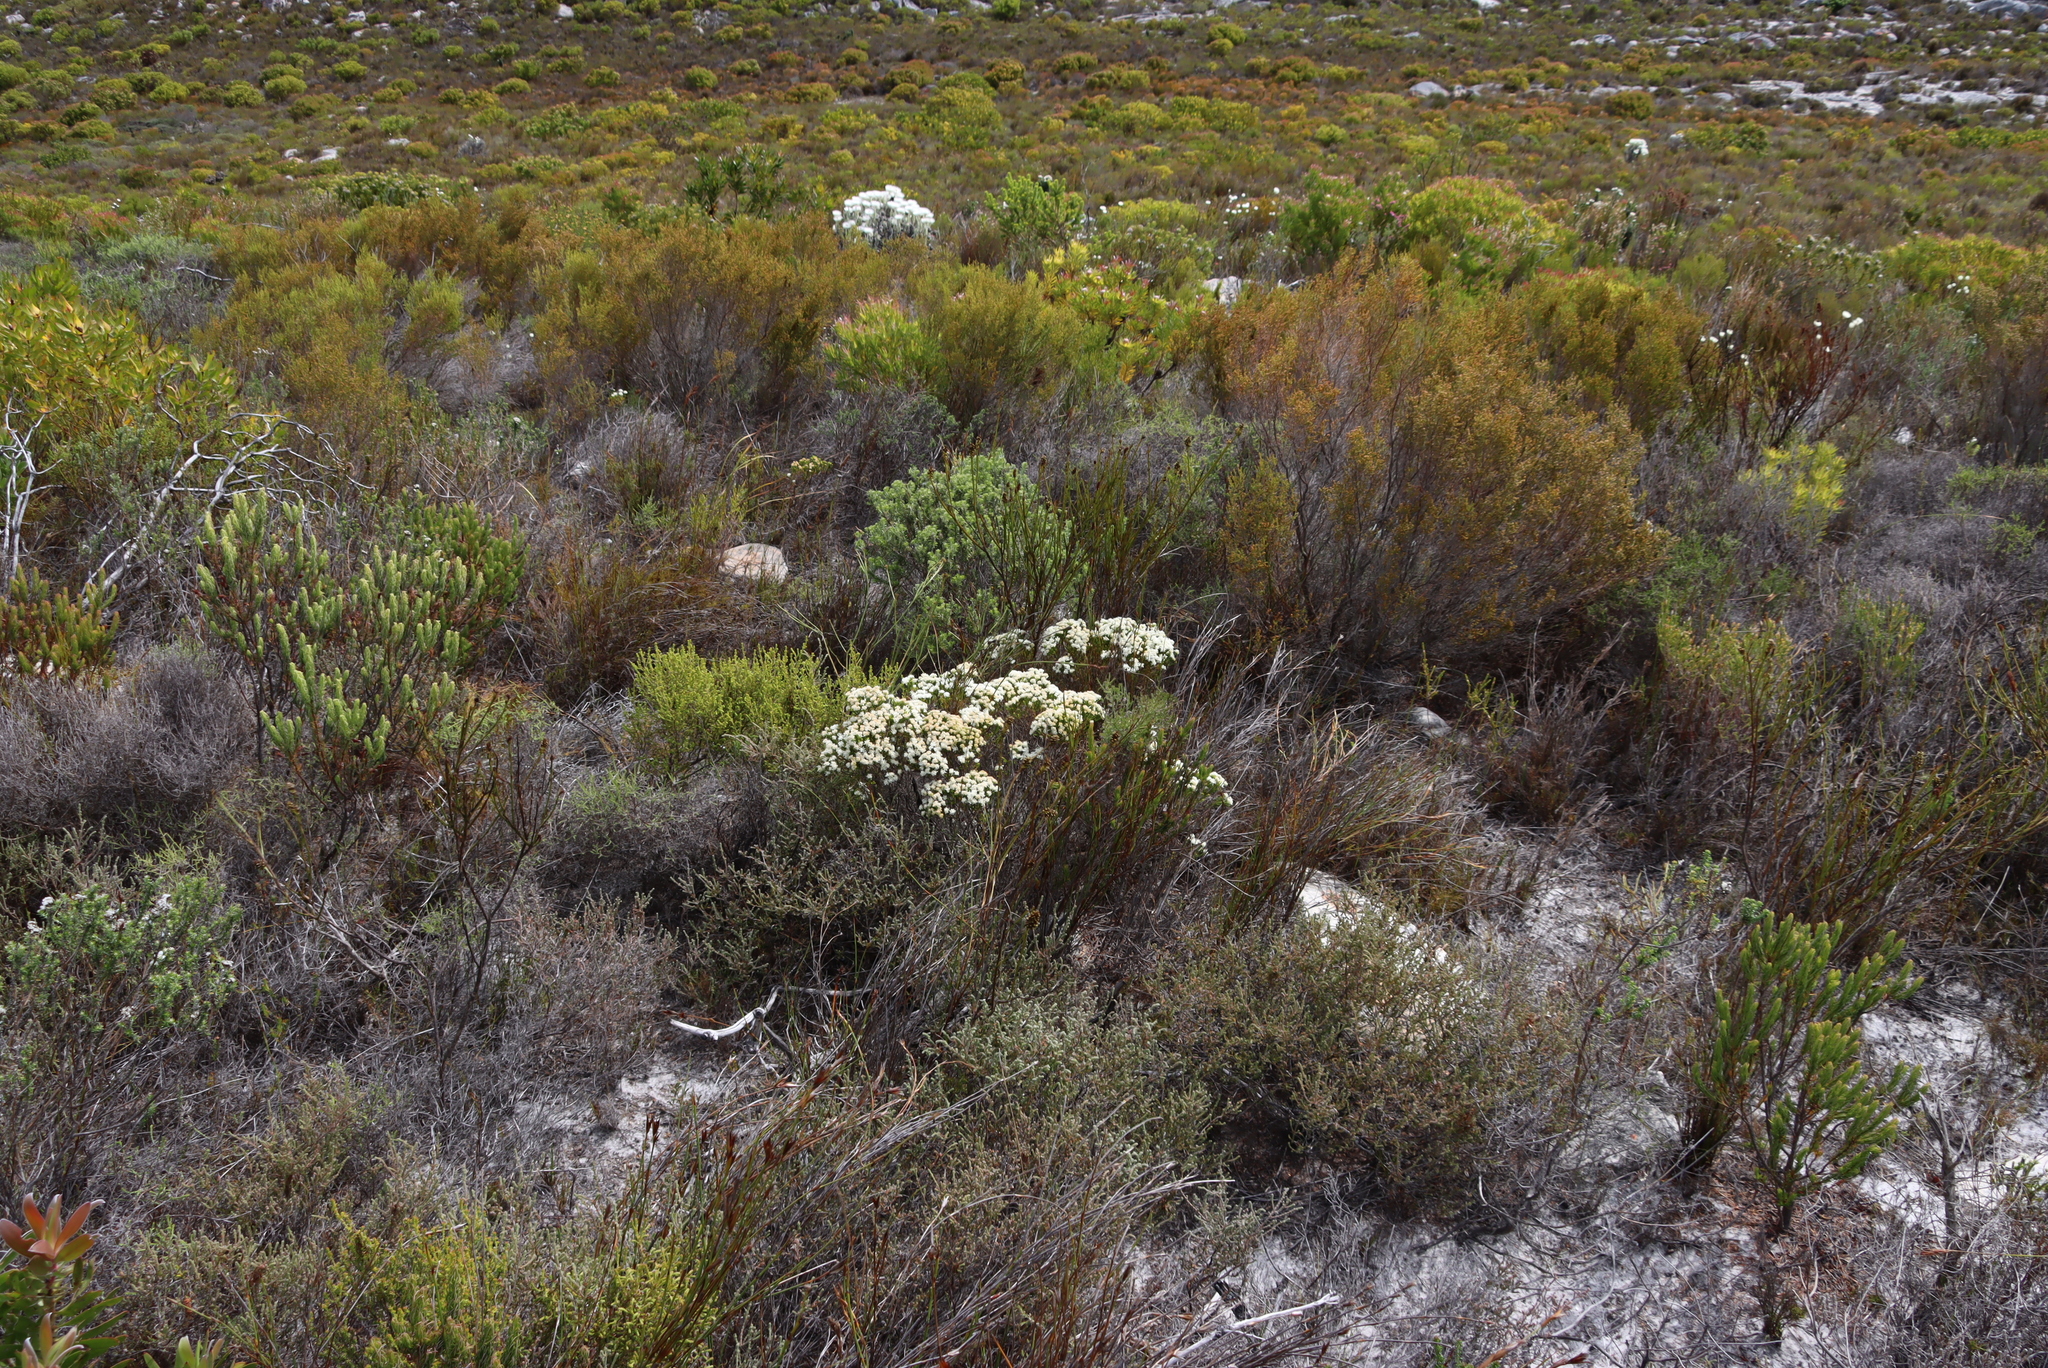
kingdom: Plantae
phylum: Tracheophyta
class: Magnoliopsida
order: Sapindales
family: Rutaceae
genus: Agathosma
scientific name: Agathosma imbricata
